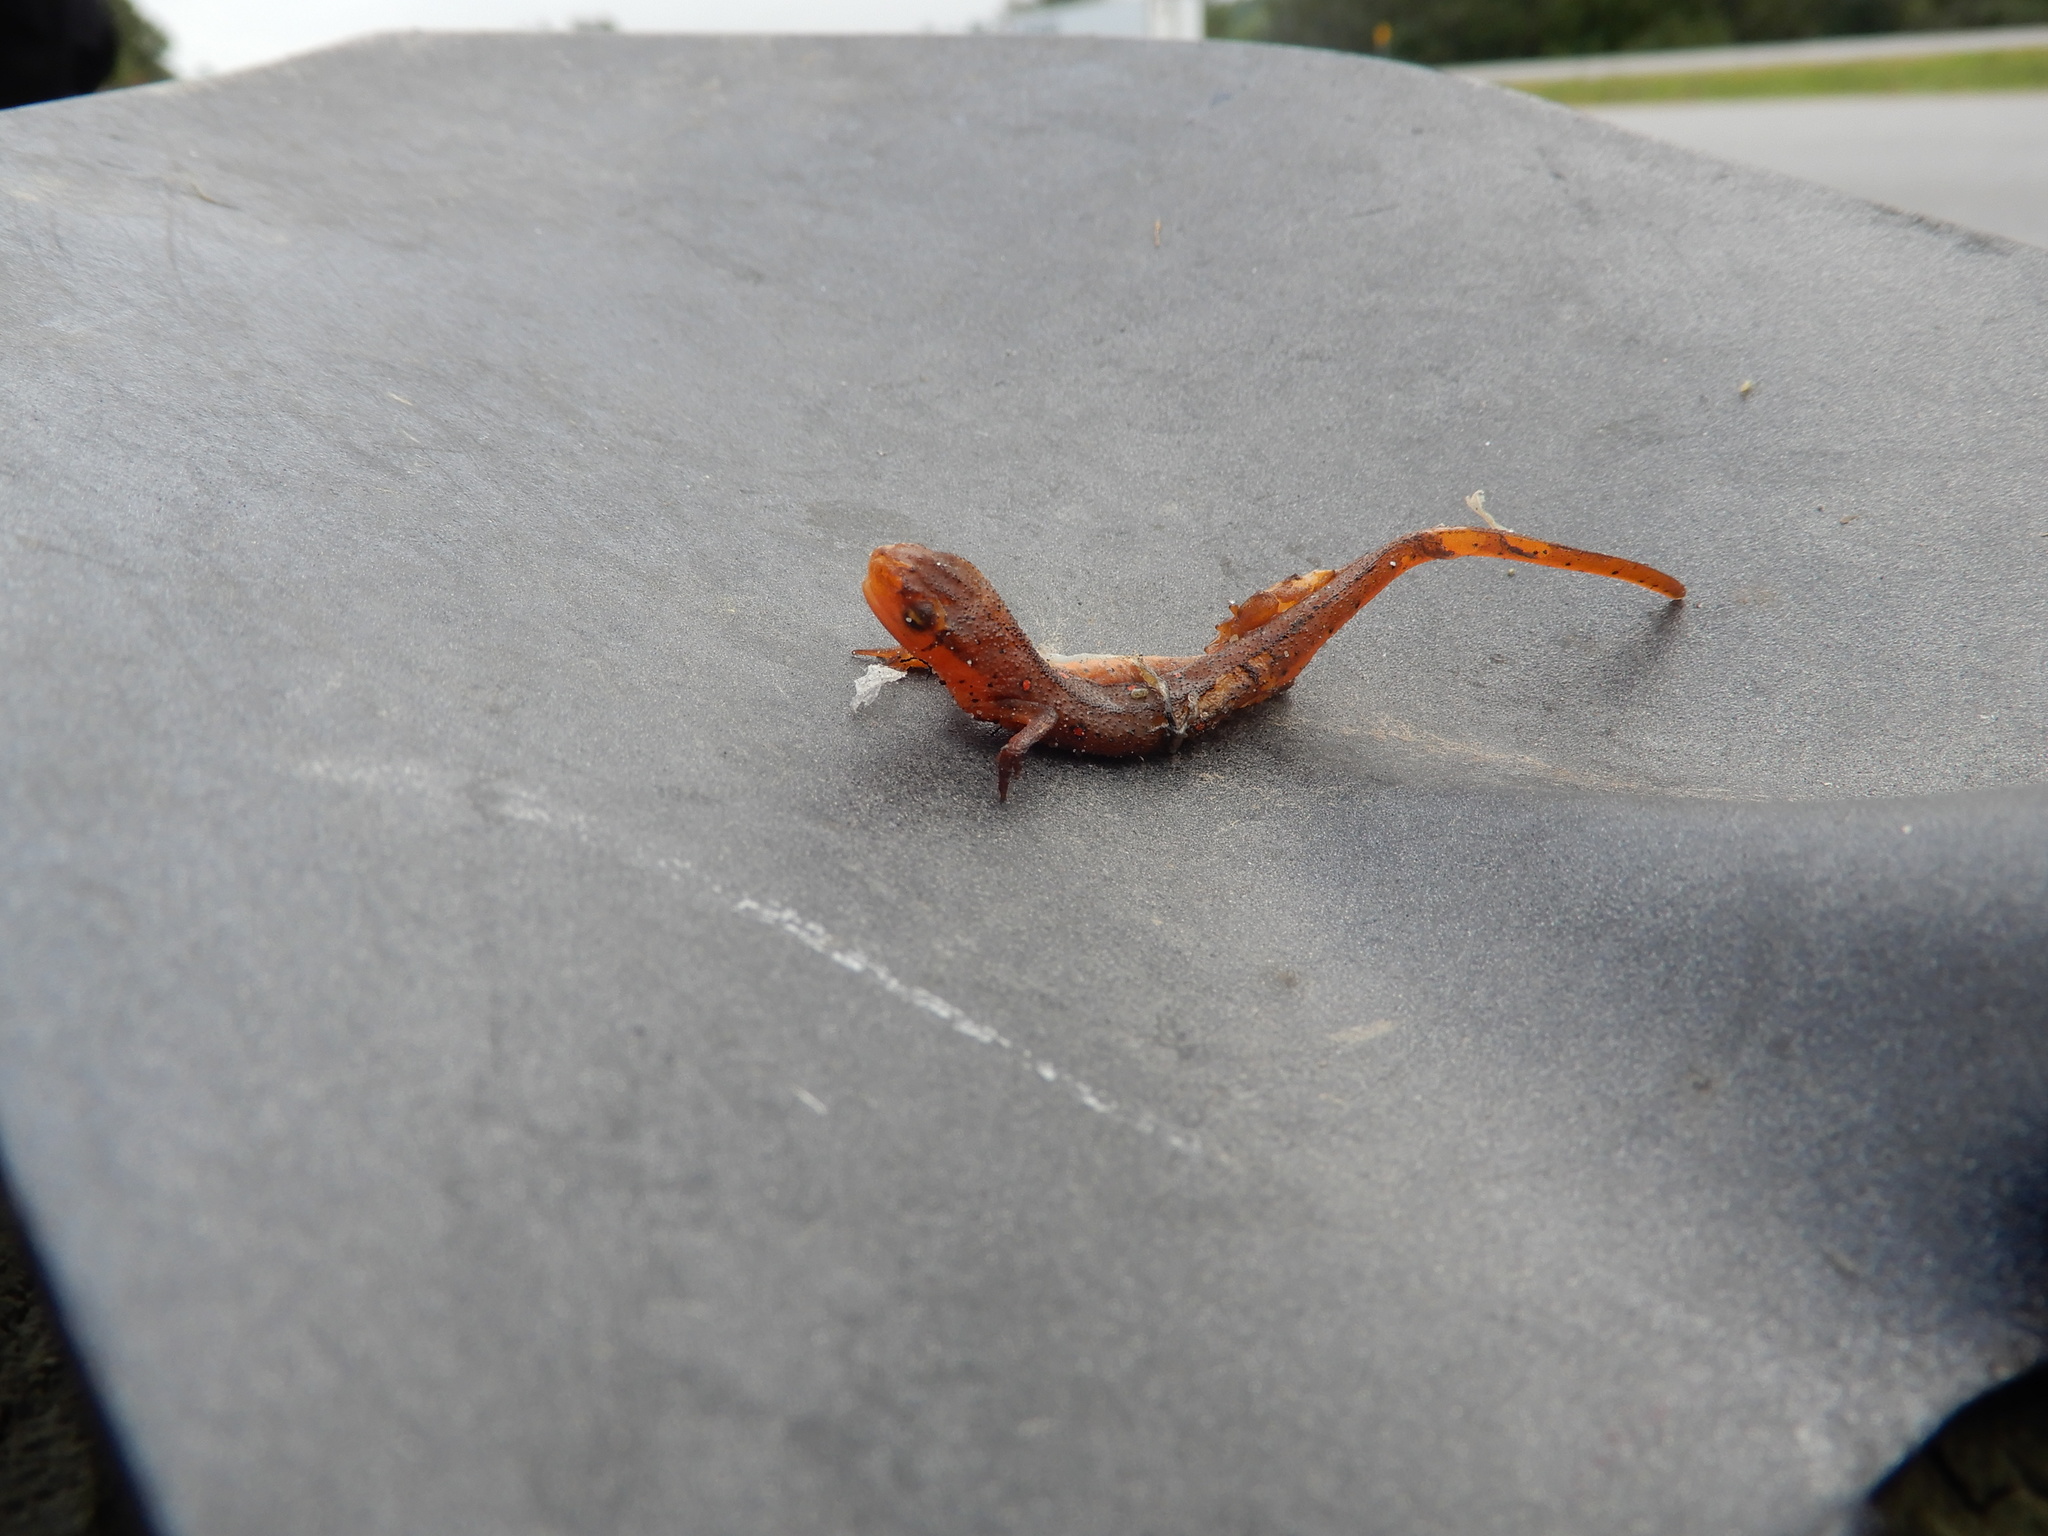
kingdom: Animalia
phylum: Chordata
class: Amphibia
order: Caudata
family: Salamandridae
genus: Notophthalmus
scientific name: Notophthalmus viridescens
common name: Eastern newt
